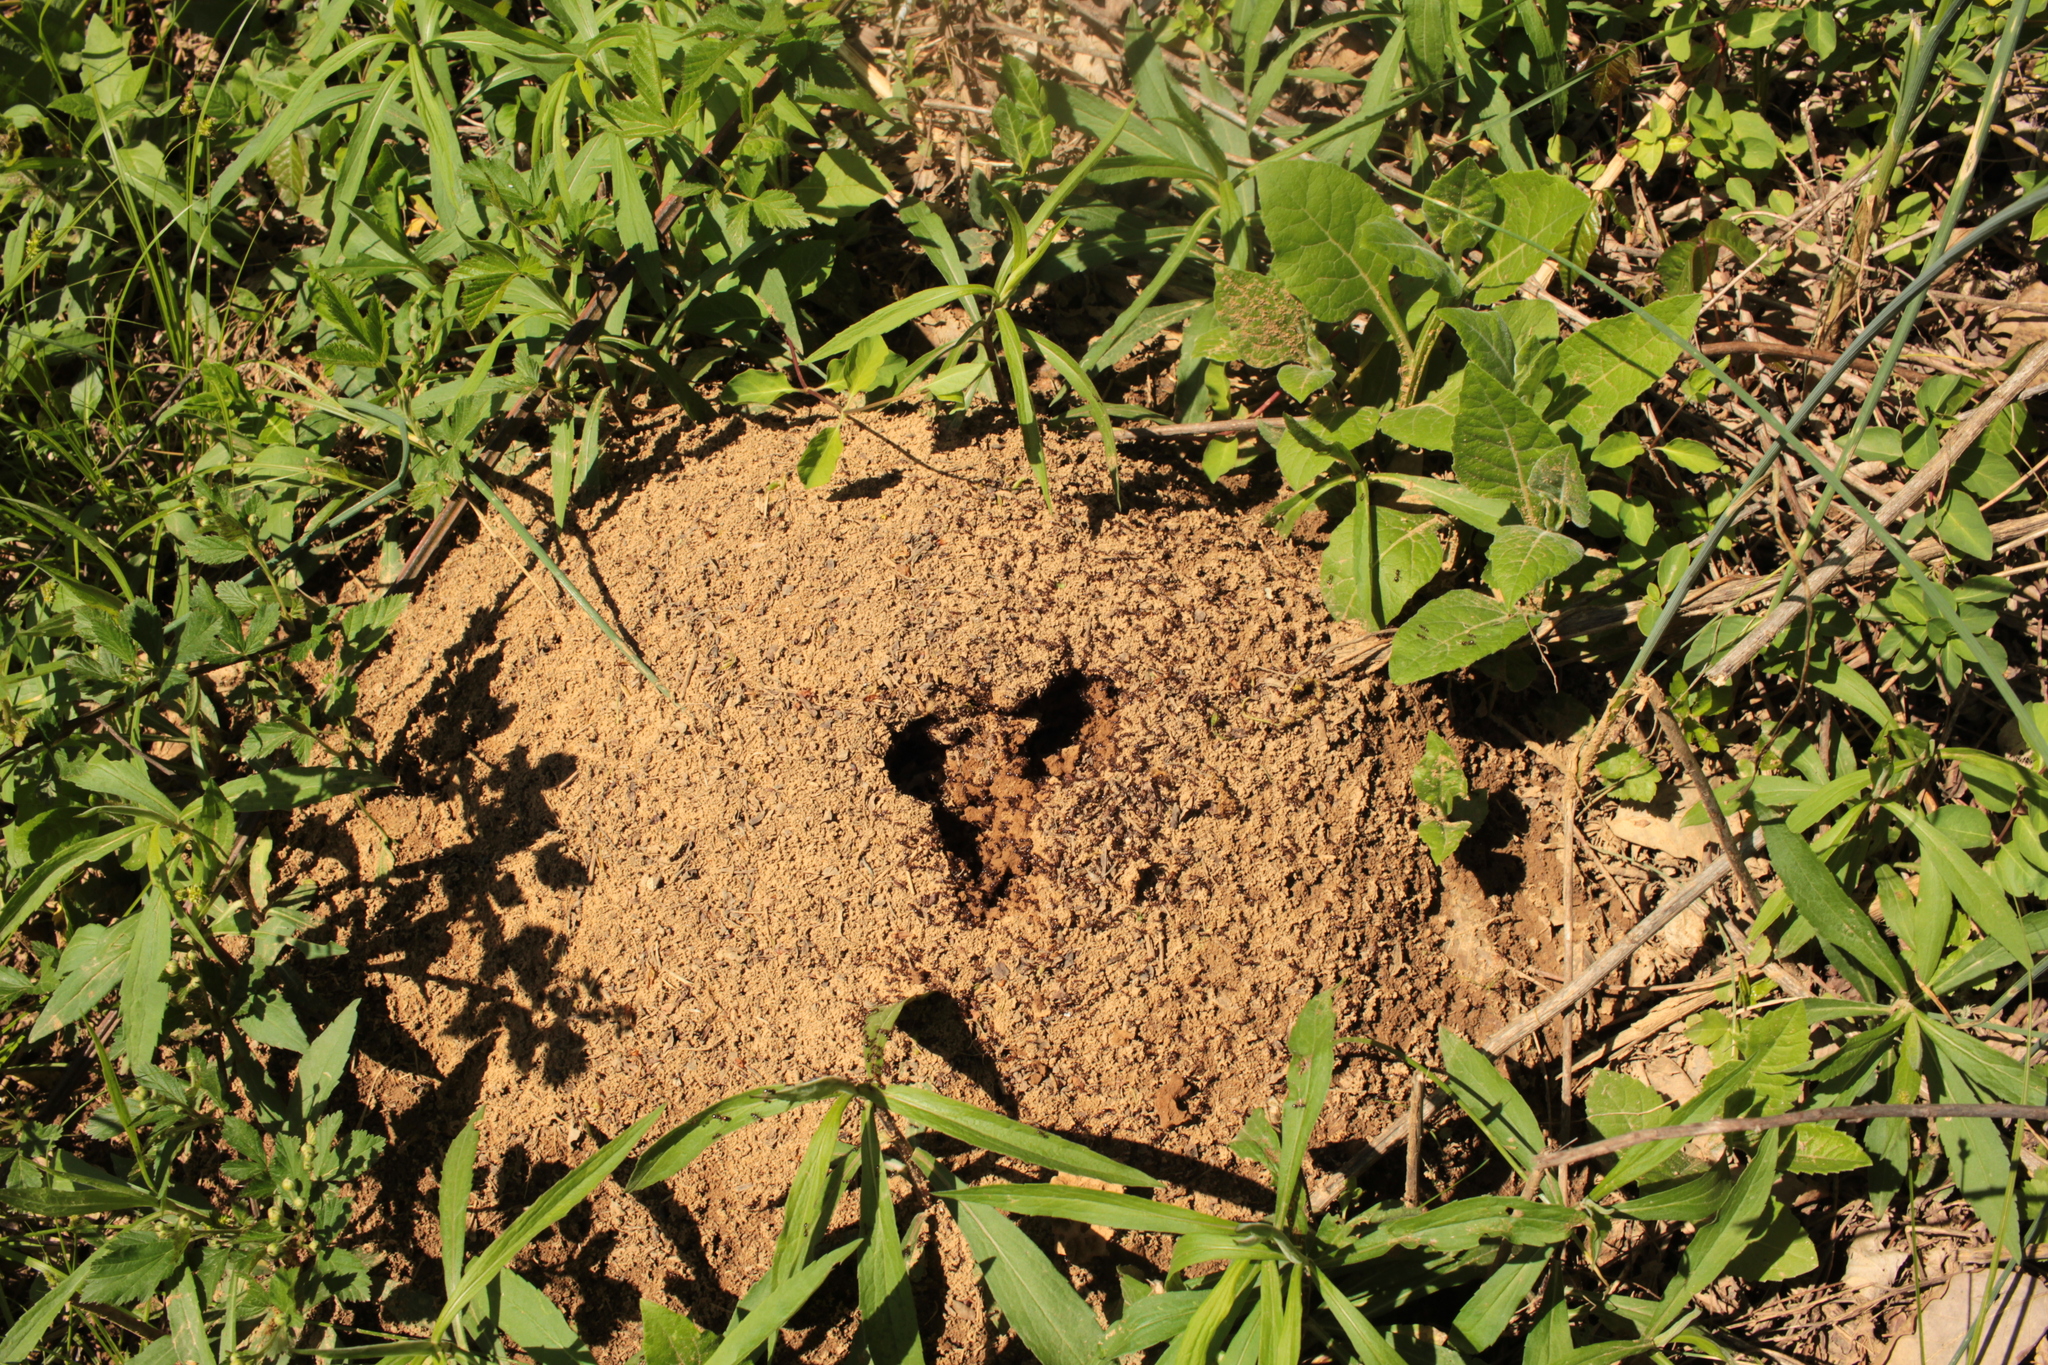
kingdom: Animalia
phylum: Arthropoda
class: Insecta
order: Hymenoptera
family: Formicidae
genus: Solenopsis
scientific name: Solenopsis invicta
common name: Red imported fire ant
